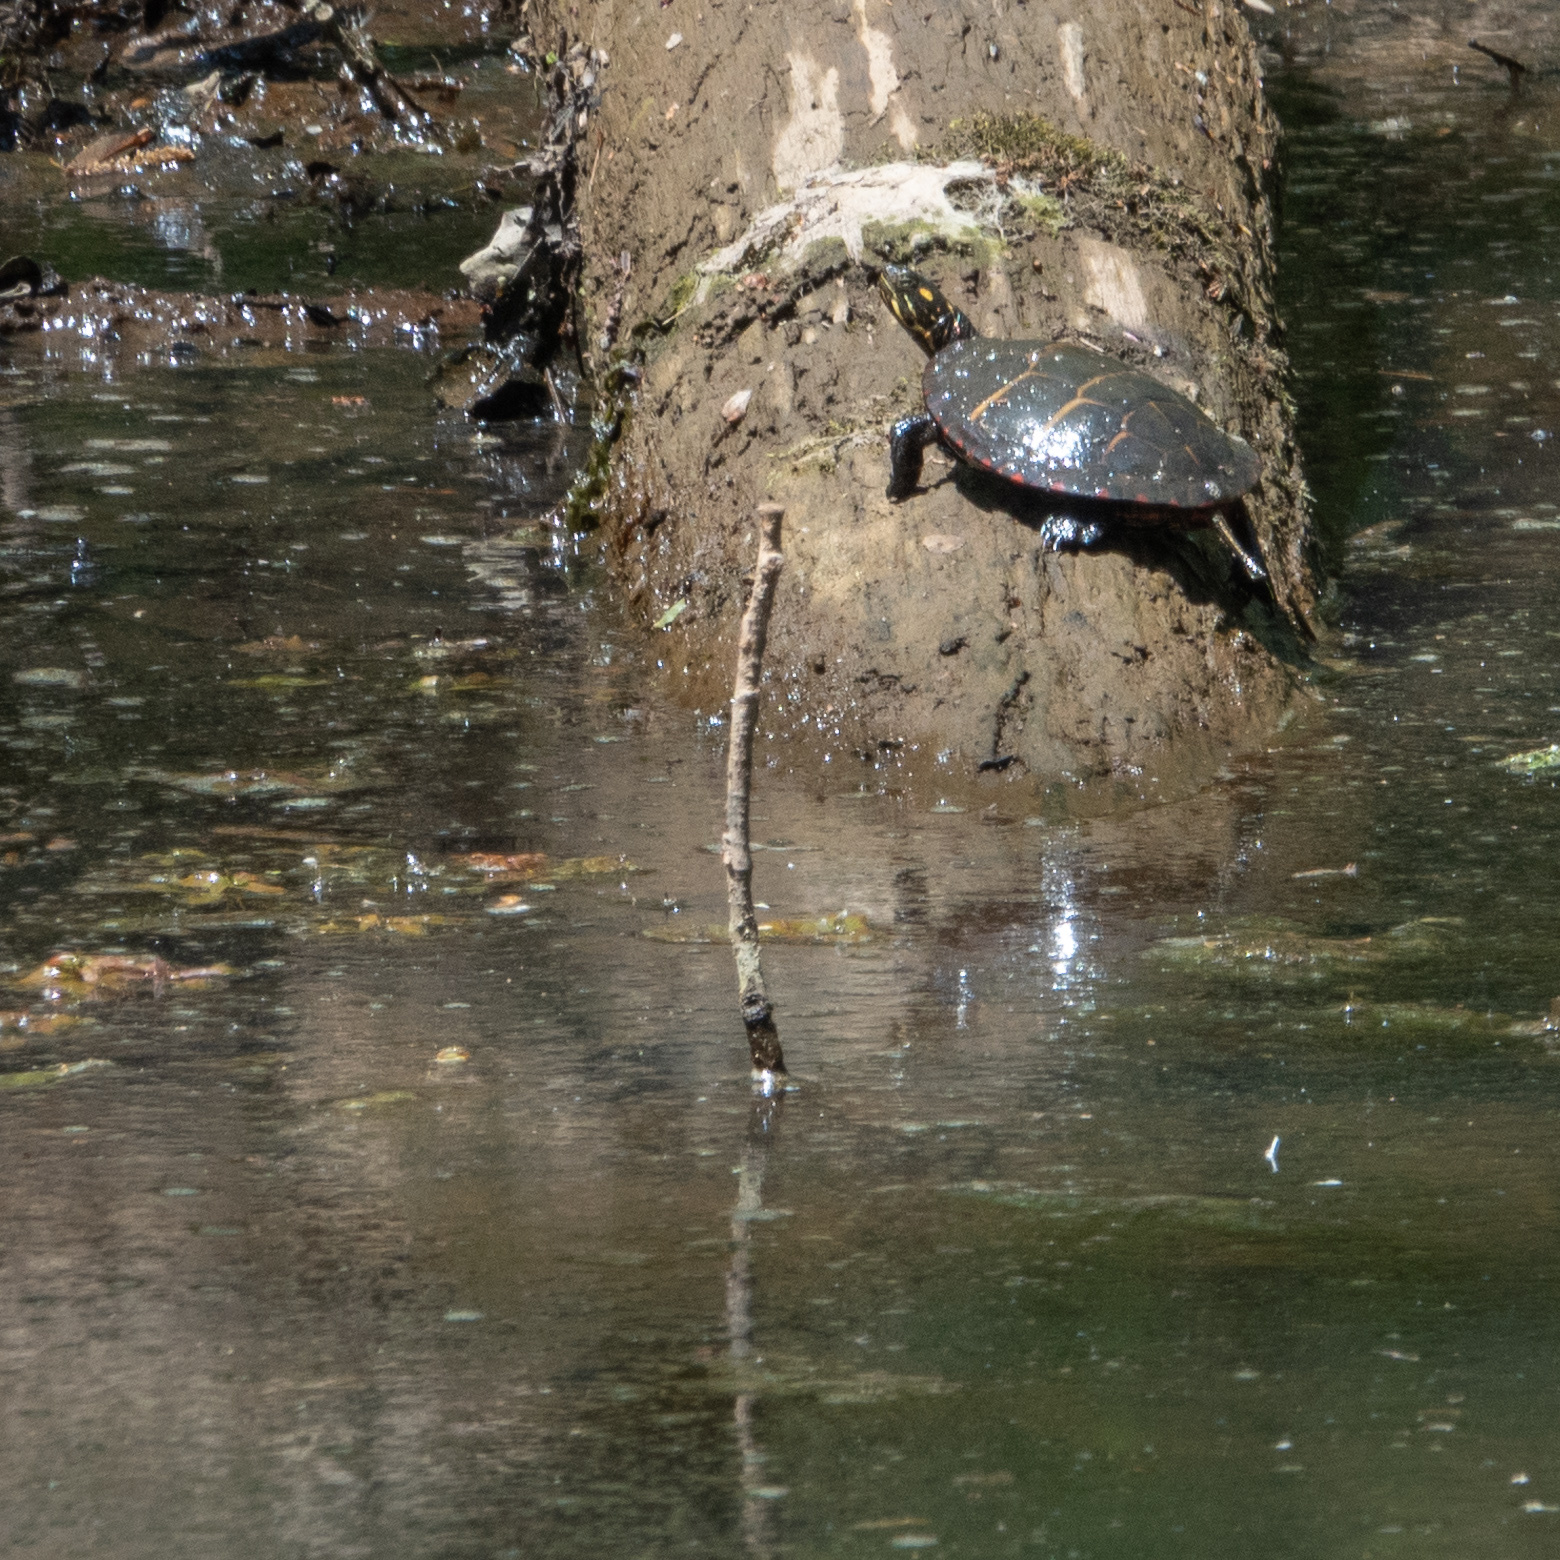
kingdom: Animalia
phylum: Chordata
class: Testudines
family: Emydidae
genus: Chrysemys
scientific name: Chrysemys picta
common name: Painted turtle
